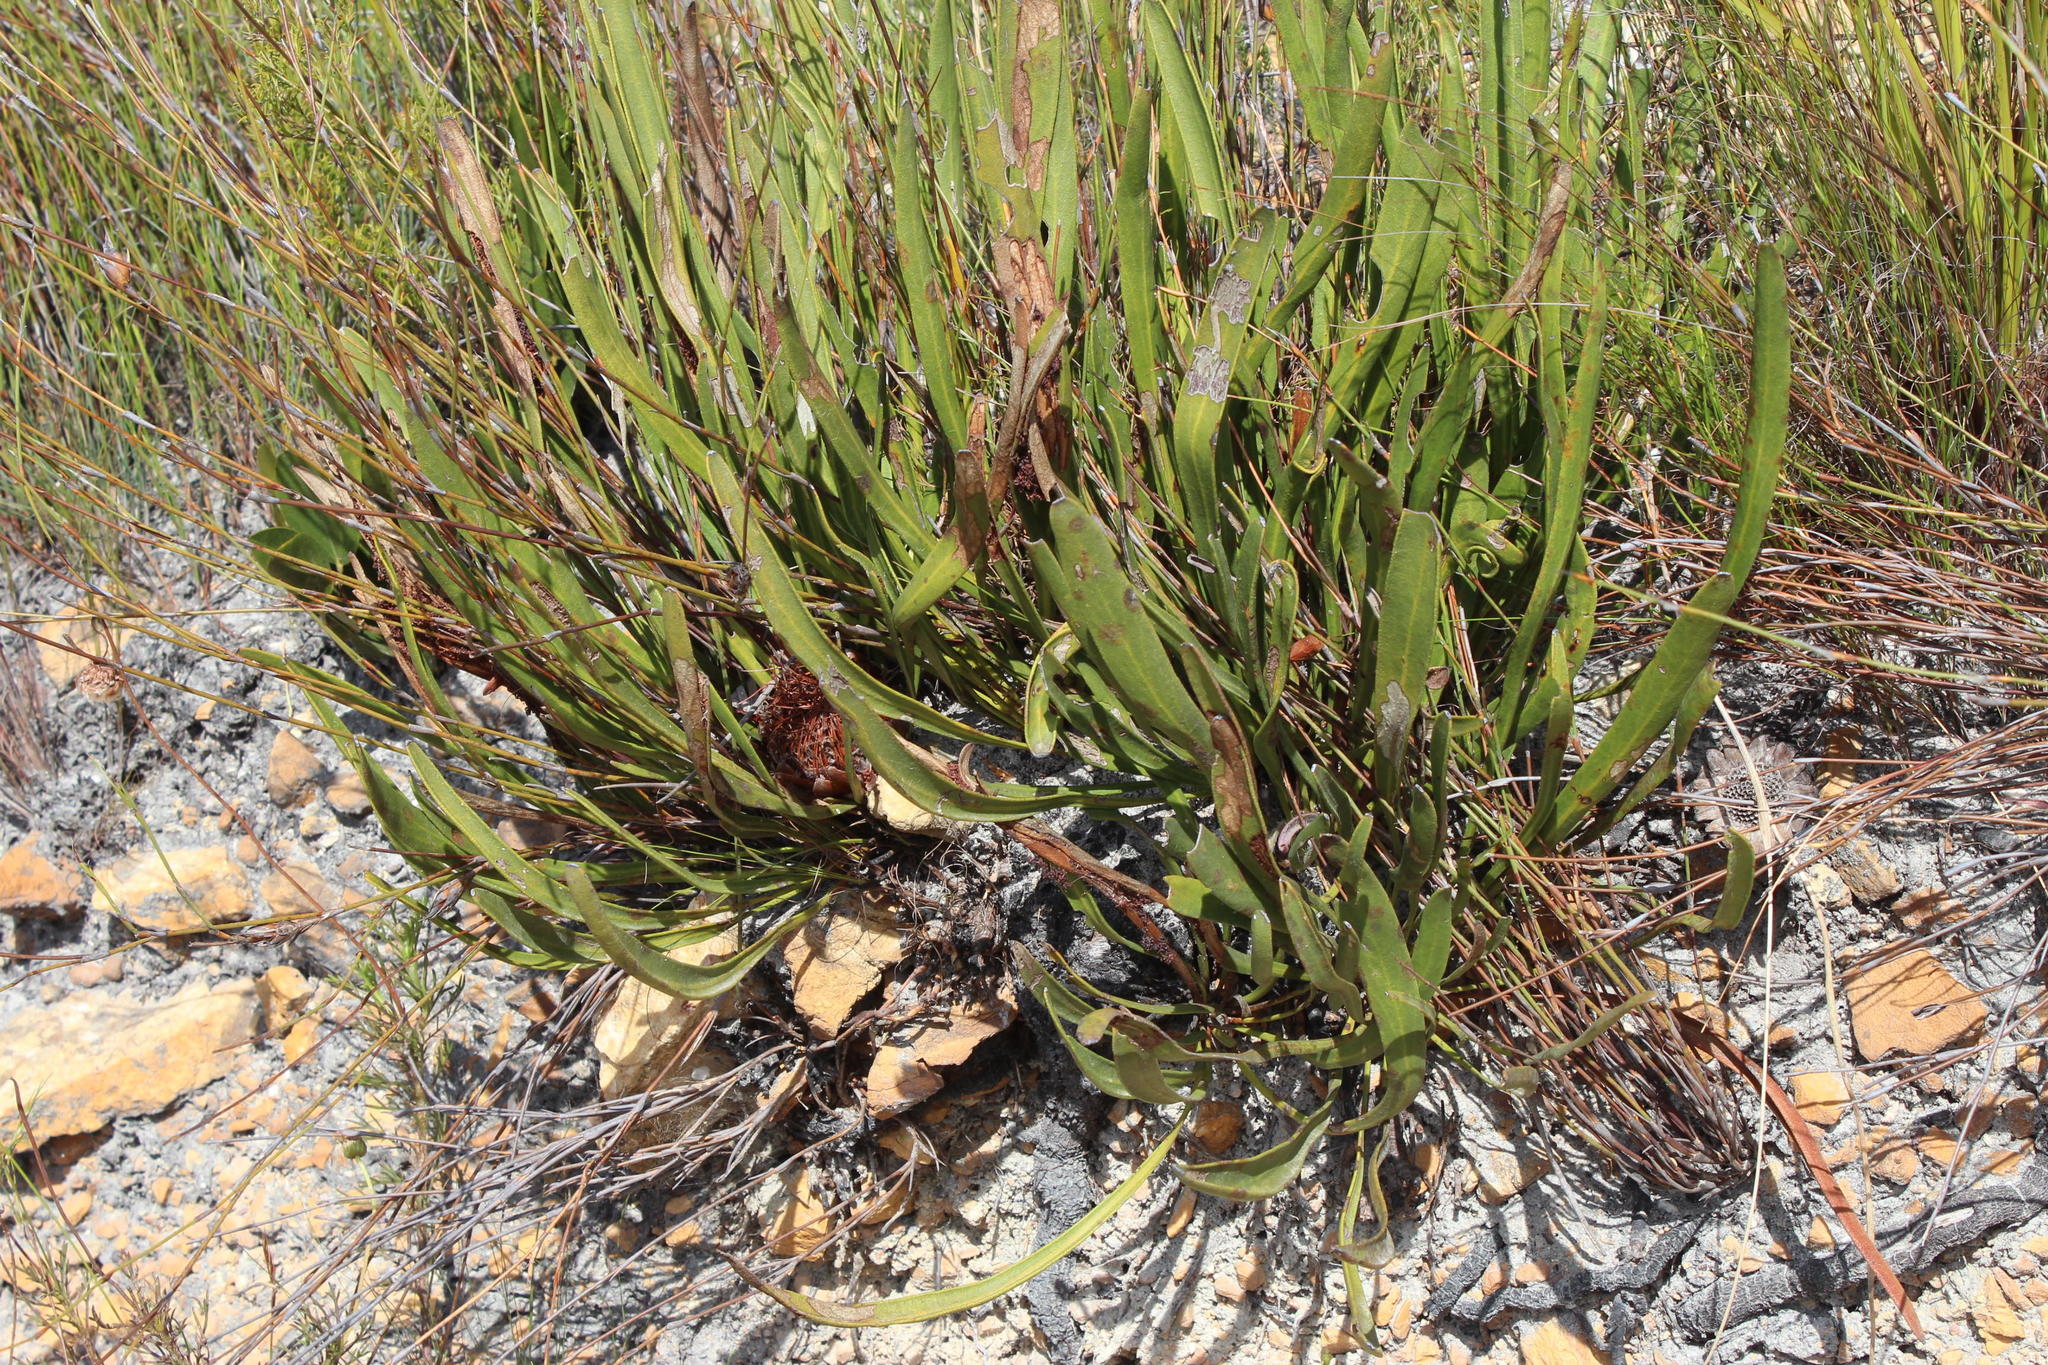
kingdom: Plantae
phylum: Tracheophyta
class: Magnoliopsida
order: Proteales
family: Proteaceae
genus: Protea
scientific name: Protea scabra
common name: Sandpaper-leaf sugarbush
